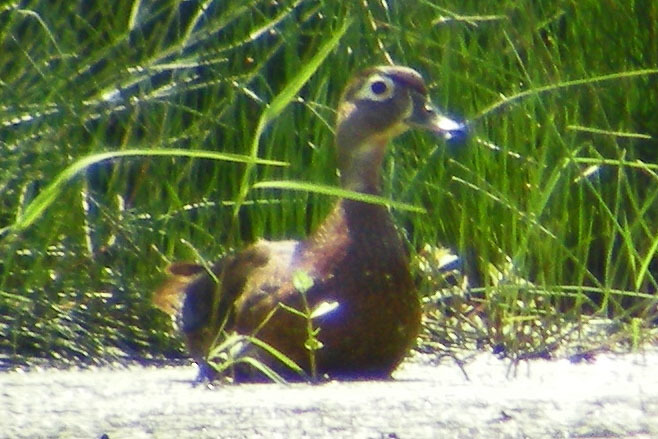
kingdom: Animalia
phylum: Chordata
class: Aves
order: Anseriformes
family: Anatidae
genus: Aix
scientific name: Aix sponsa
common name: Wood duck
